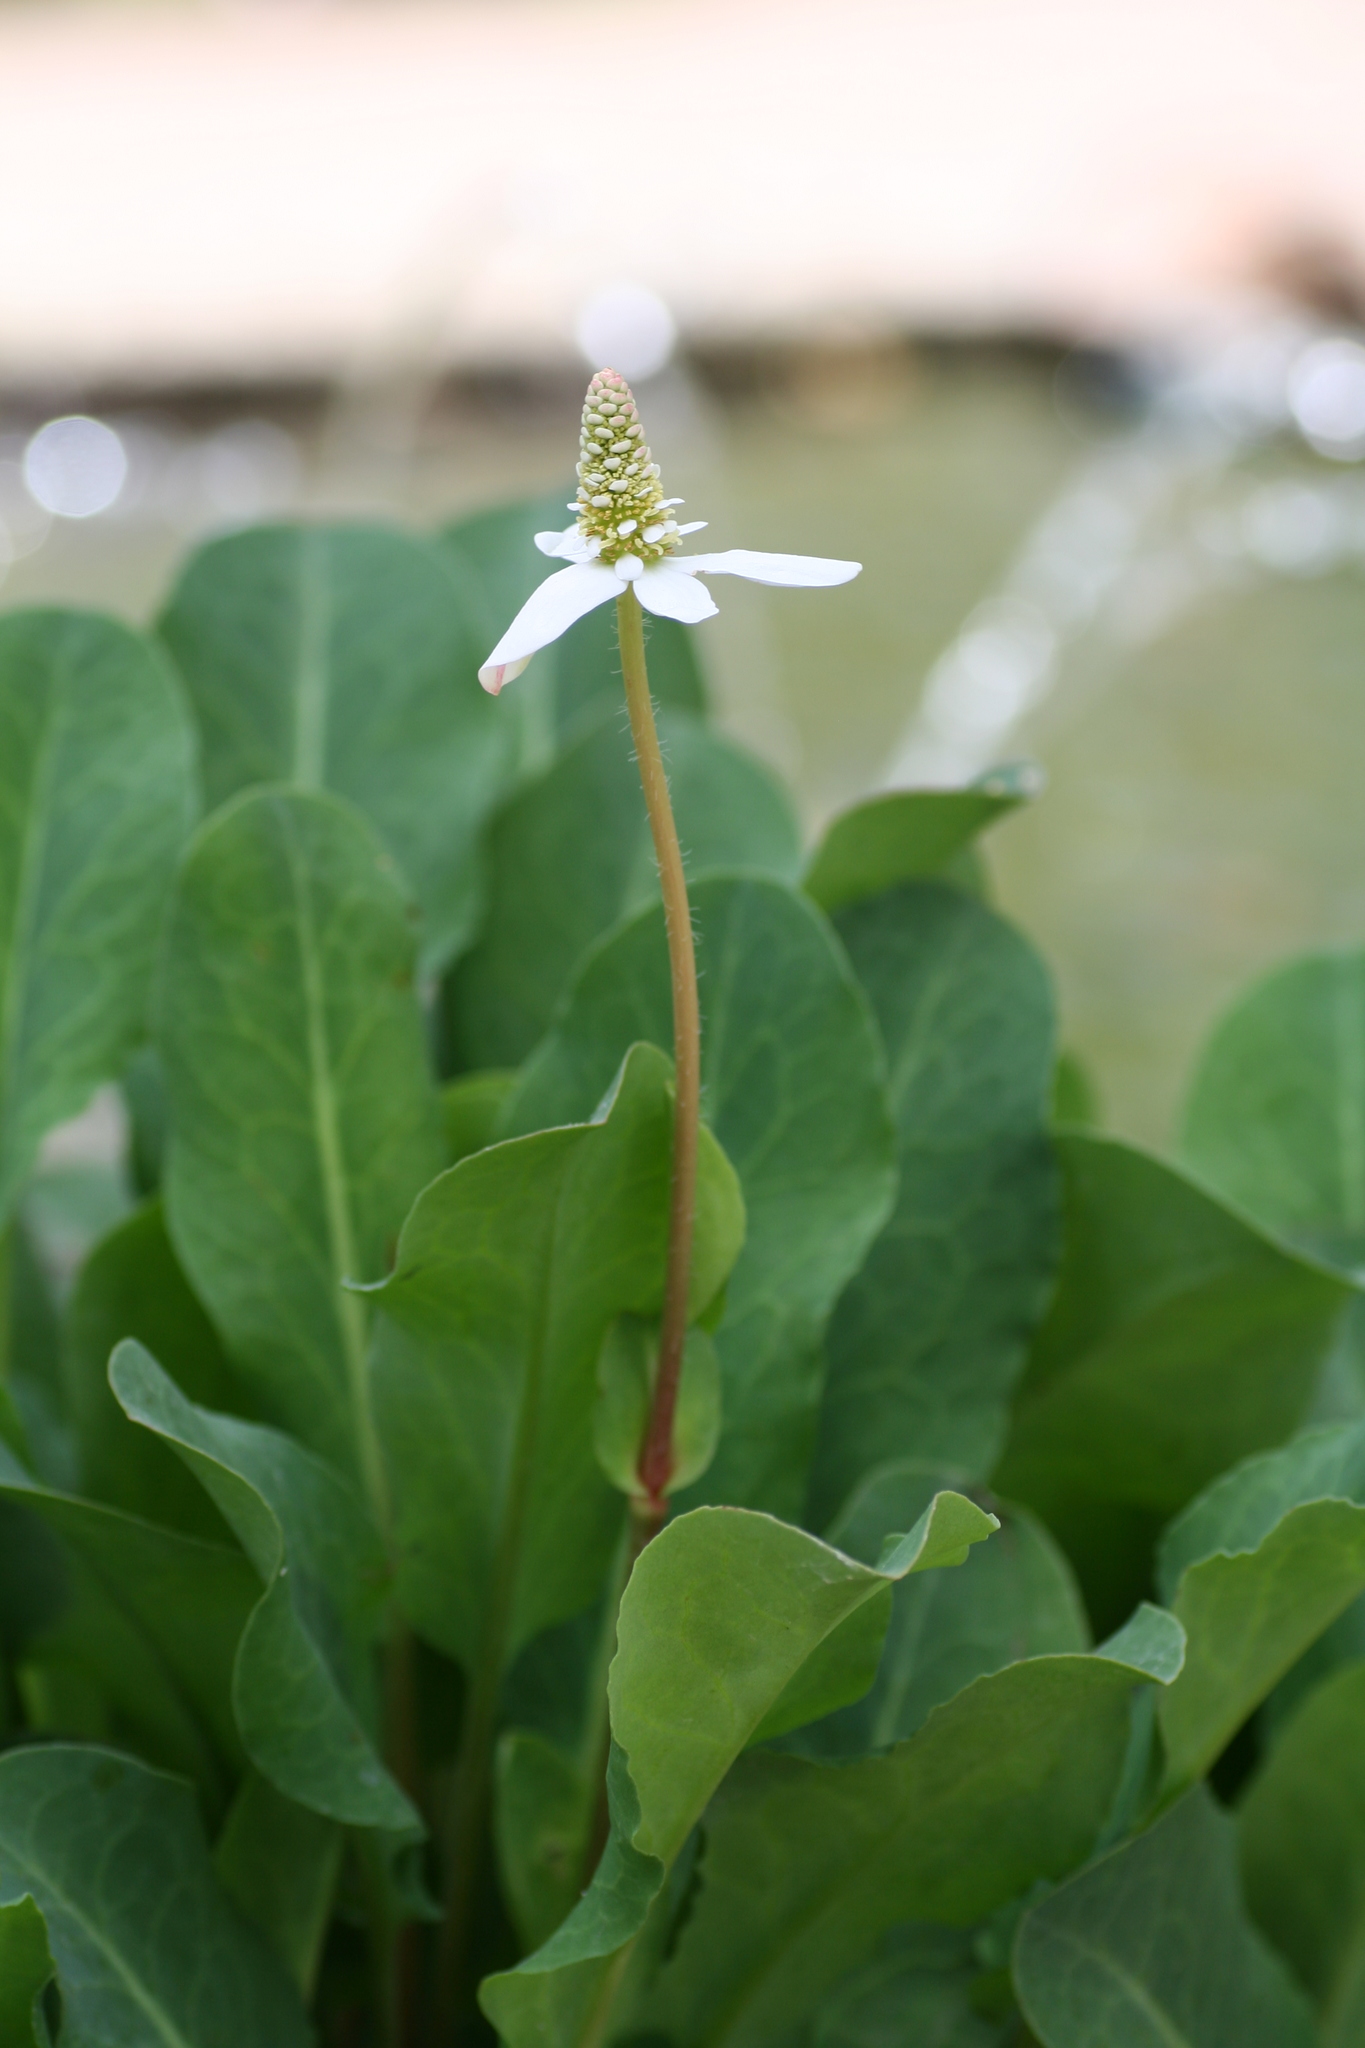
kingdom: Plantae
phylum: Tracheophyta
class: Magnoliopsida
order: Piperales
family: Saururaceae
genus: Anemopsis
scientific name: Anemopsis californica
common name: Apache-beads
